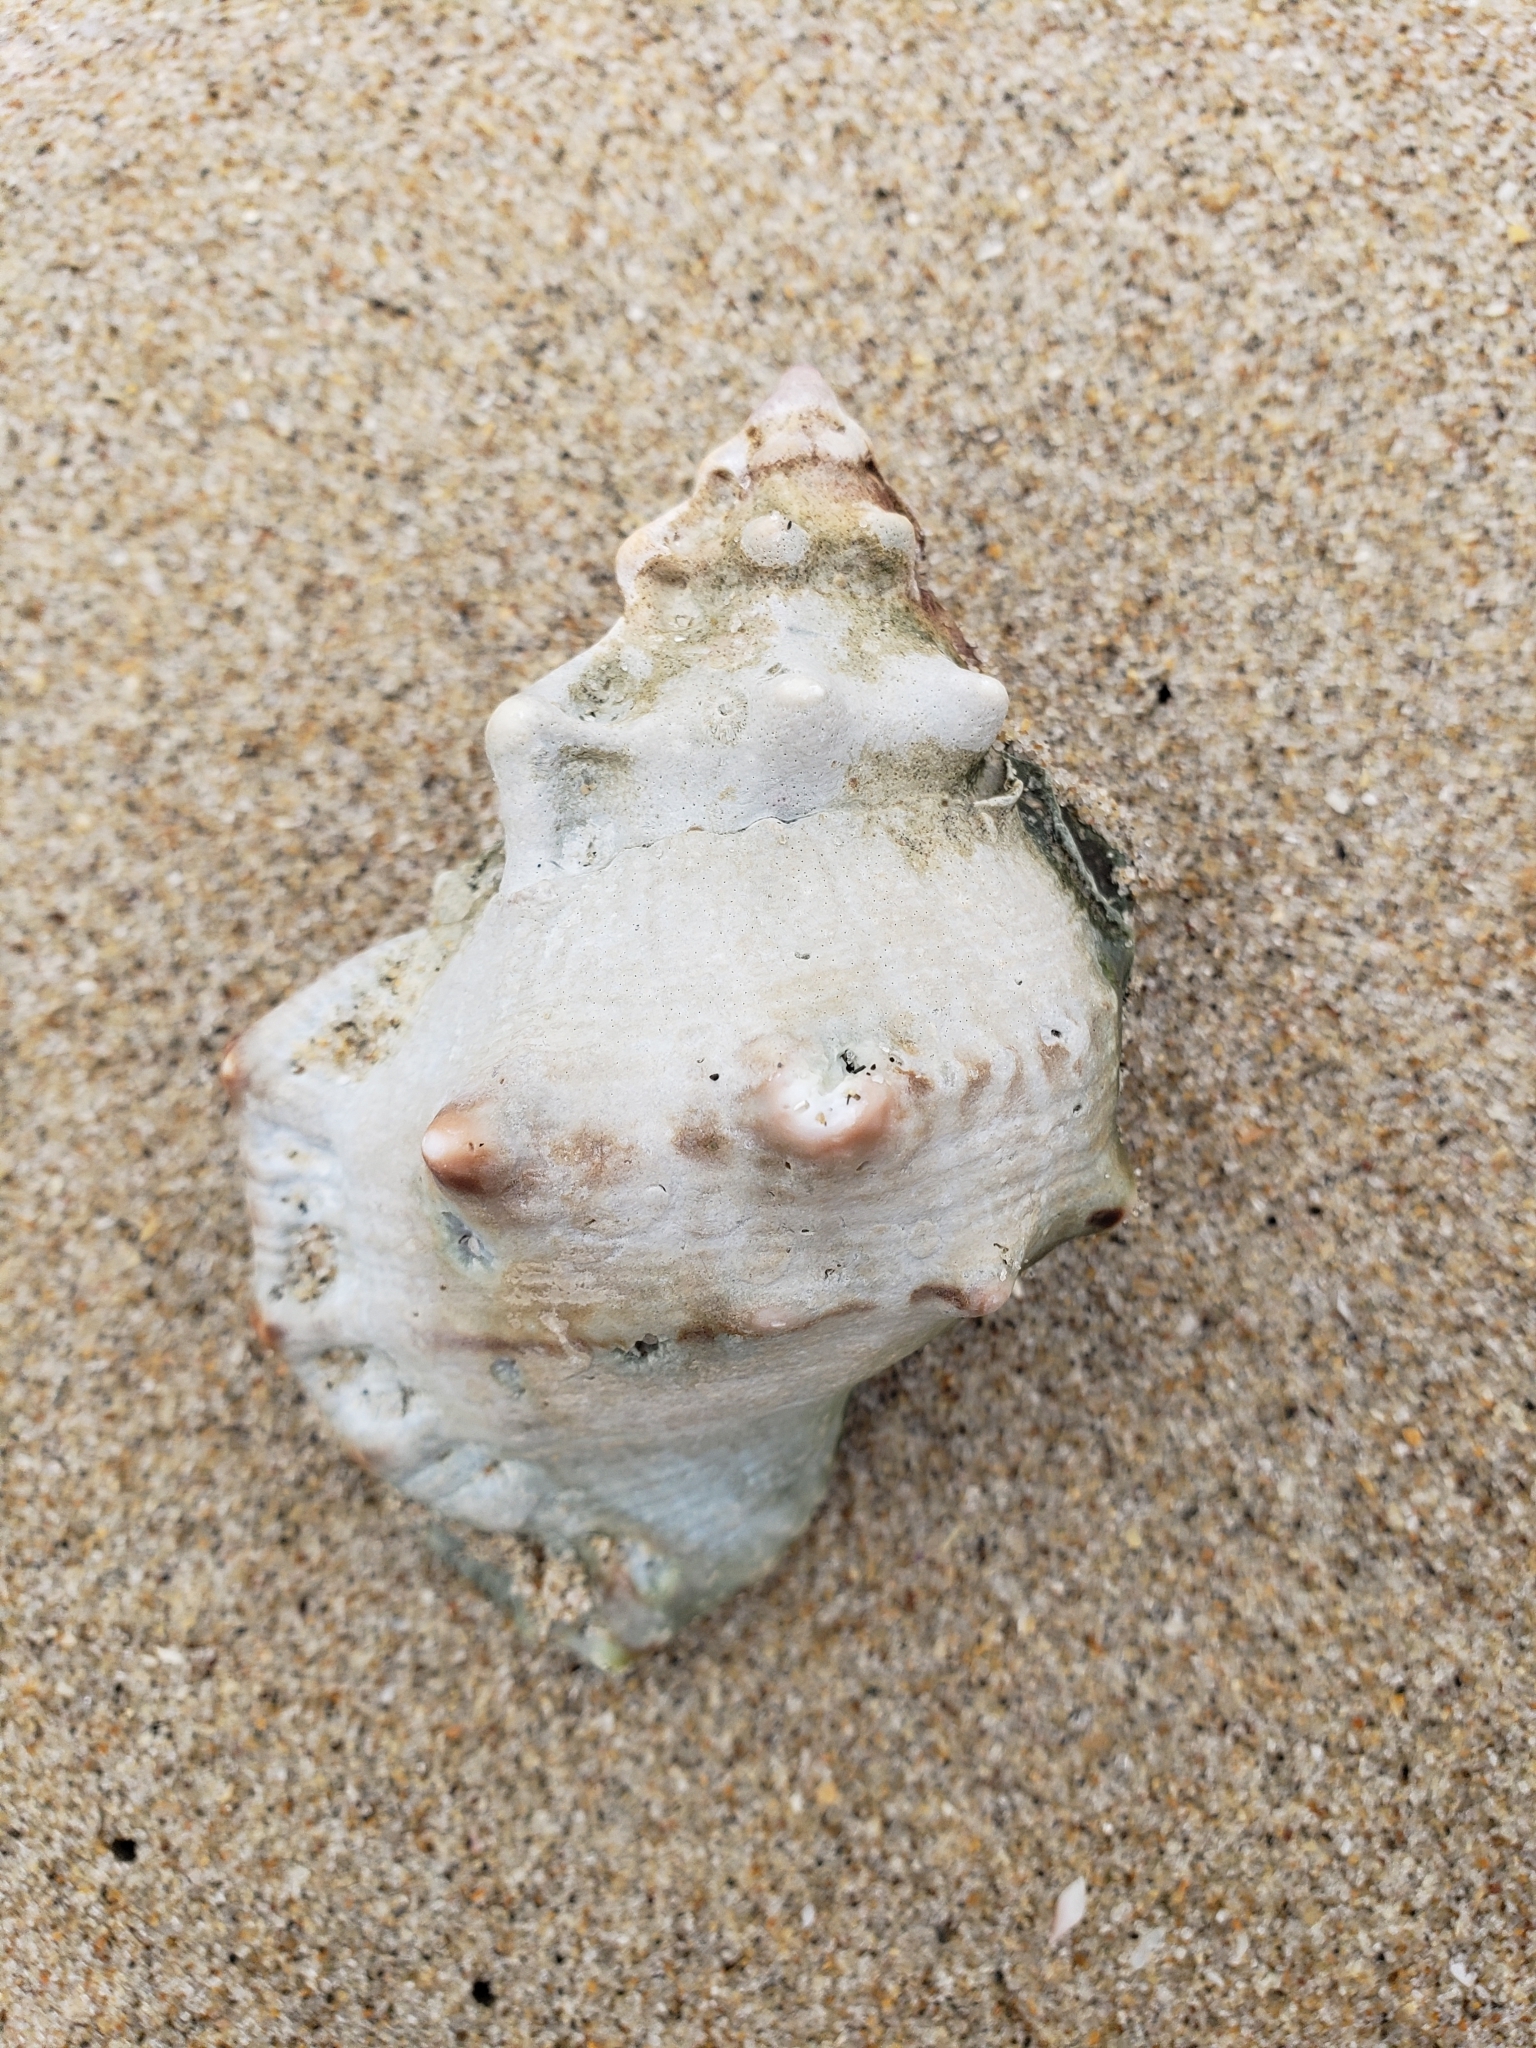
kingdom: Animalia
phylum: Mollusca
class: Gastropoda
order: Littorinimorpha
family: Bursidae
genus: Crossata
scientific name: Crossata californica
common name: California frogsnail
